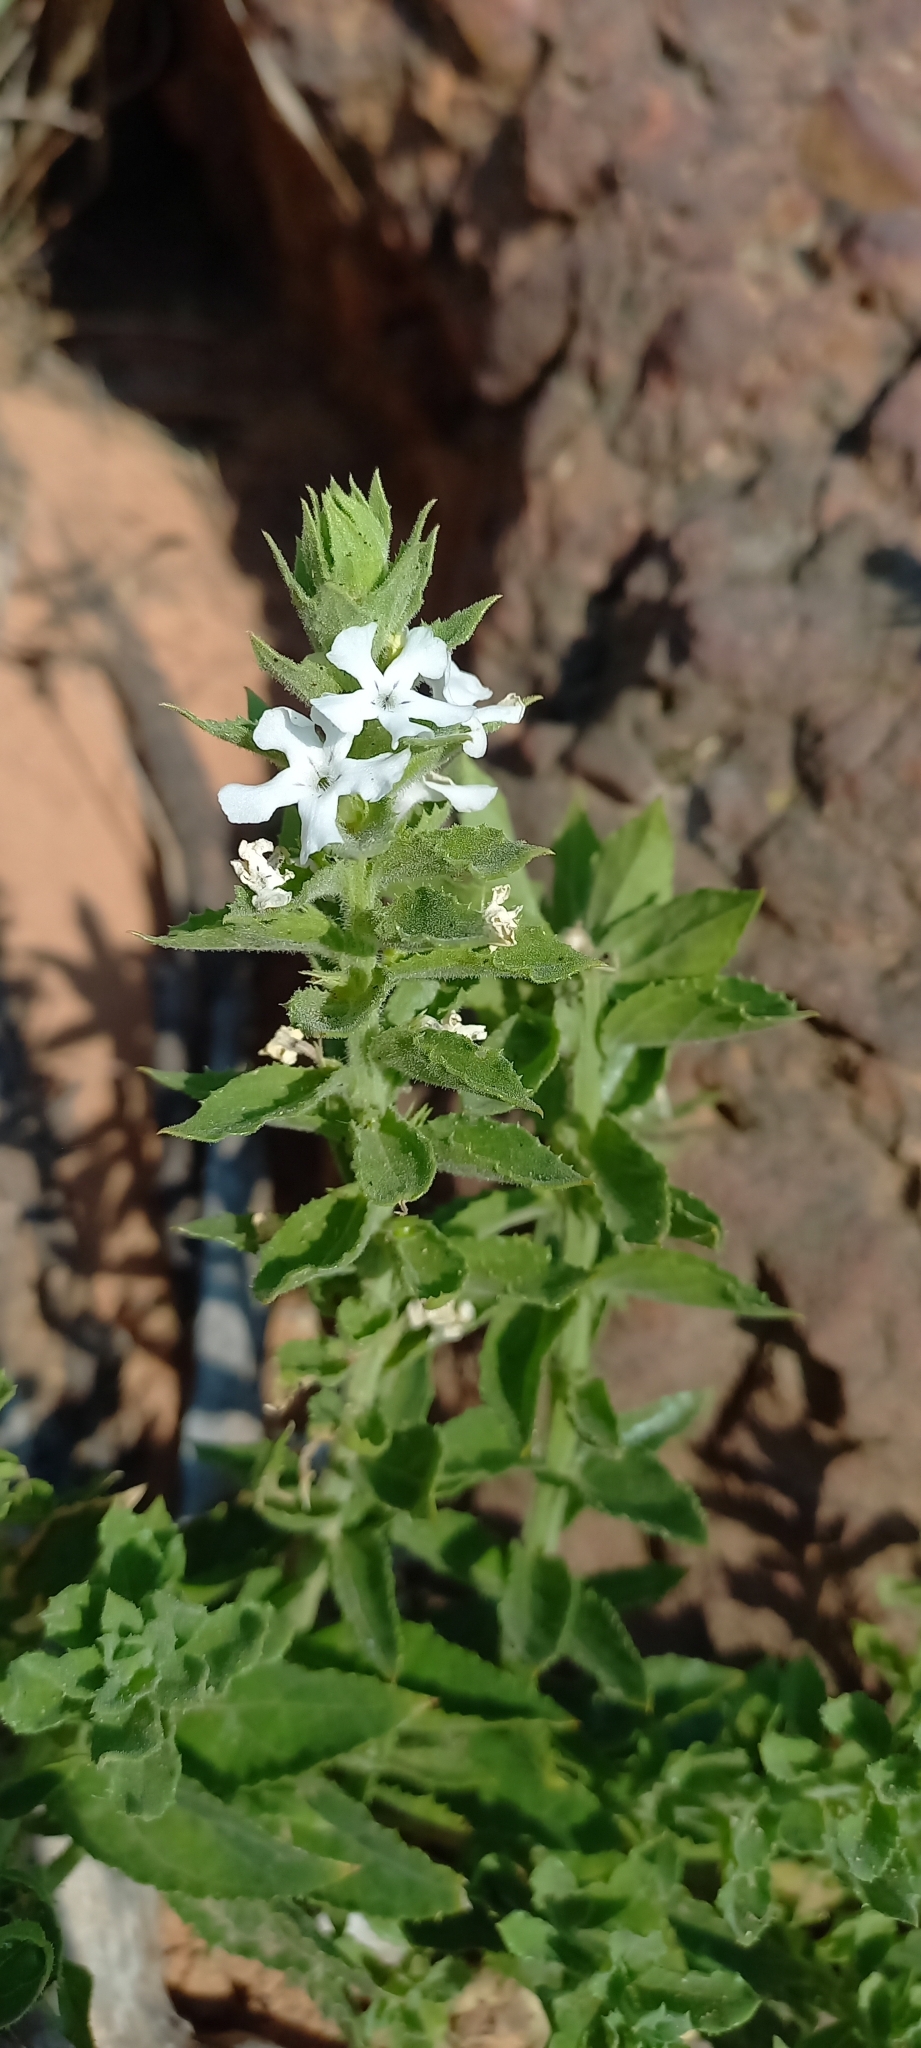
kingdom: Plantae
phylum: Tracheophyta
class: Magnoliopsida
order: Lamiales
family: Scrophulariaceae
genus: Oftia
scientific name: Oftia africana
